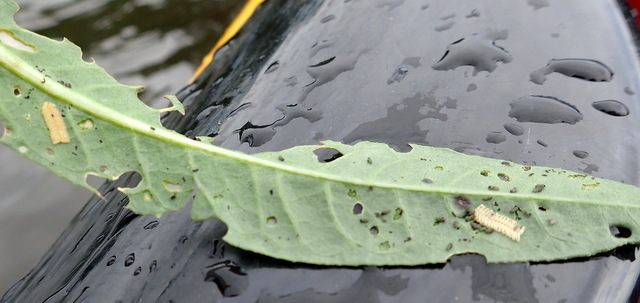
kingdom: Animalia
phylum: Arthropoda
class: Insecta
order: Coleoptera
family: Chrysomelidae
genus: Agasicles
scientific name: Agasicles hygrophila
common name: Alligatorweed flea beetle
